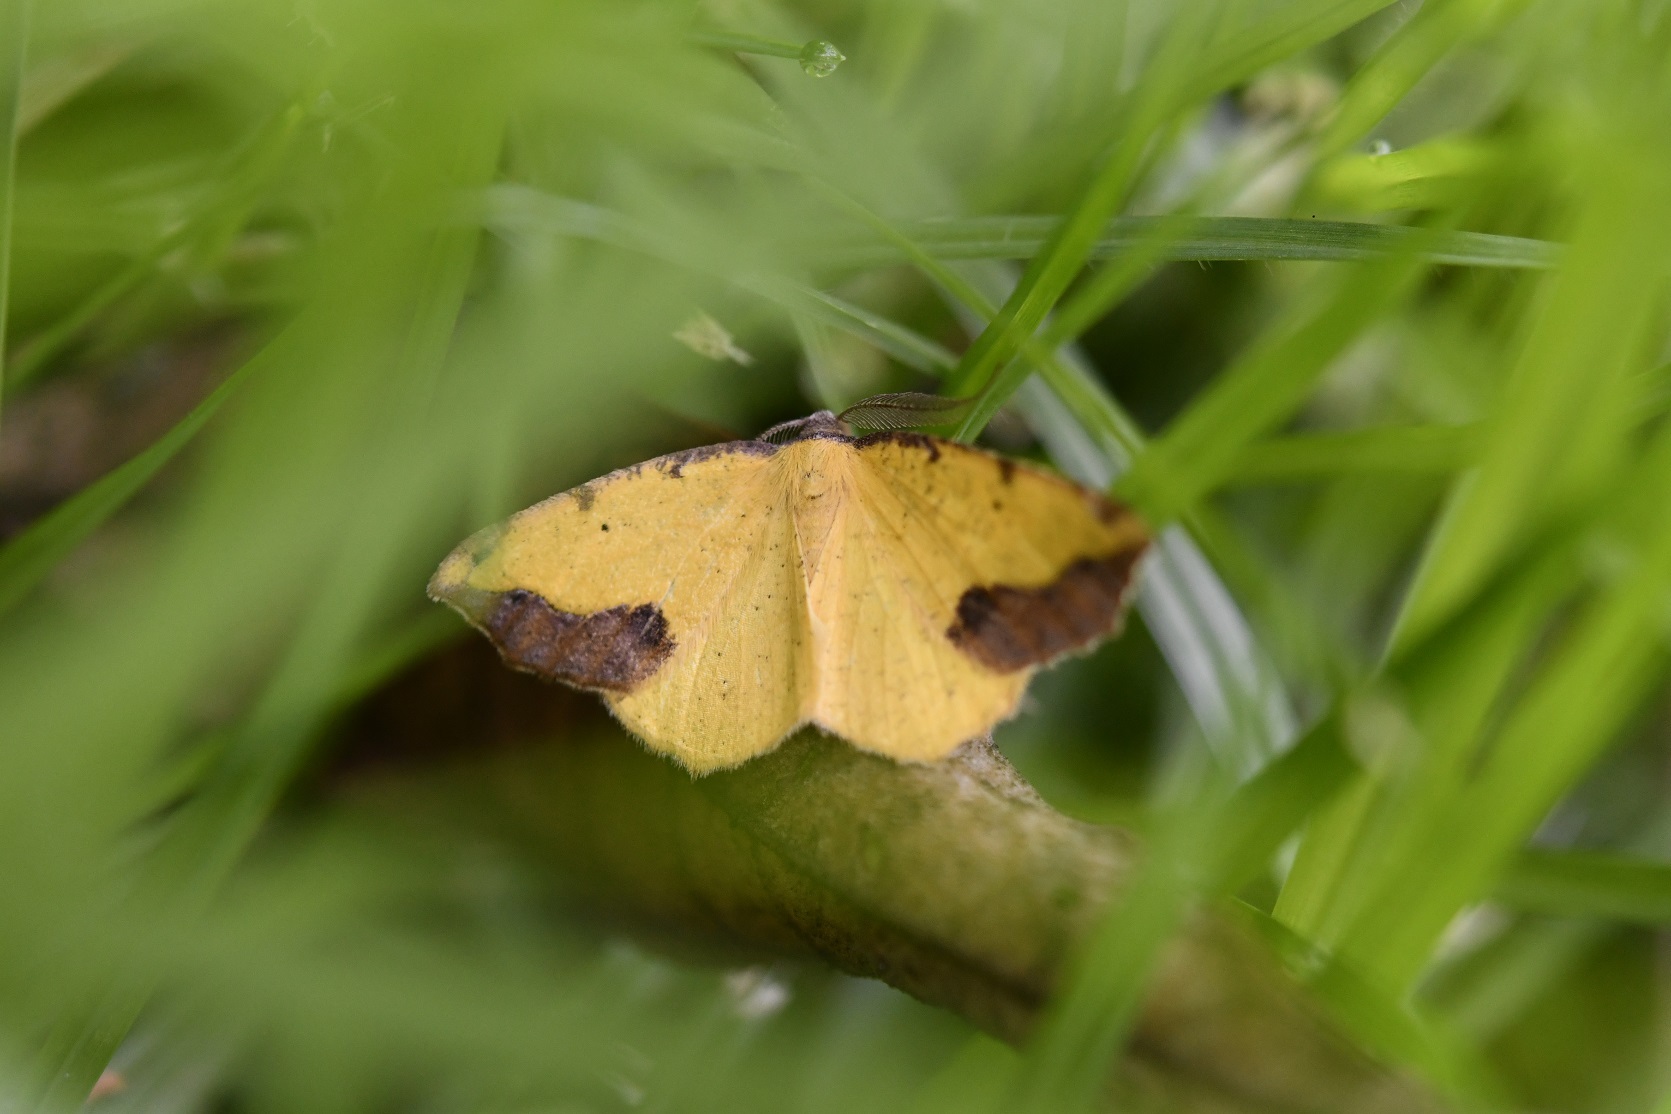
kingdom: Animalia
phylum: Arthropoda
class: Insecta
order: Lepidoptera
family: Geometridae
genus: Eusarca
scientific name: Eusarca asteria
